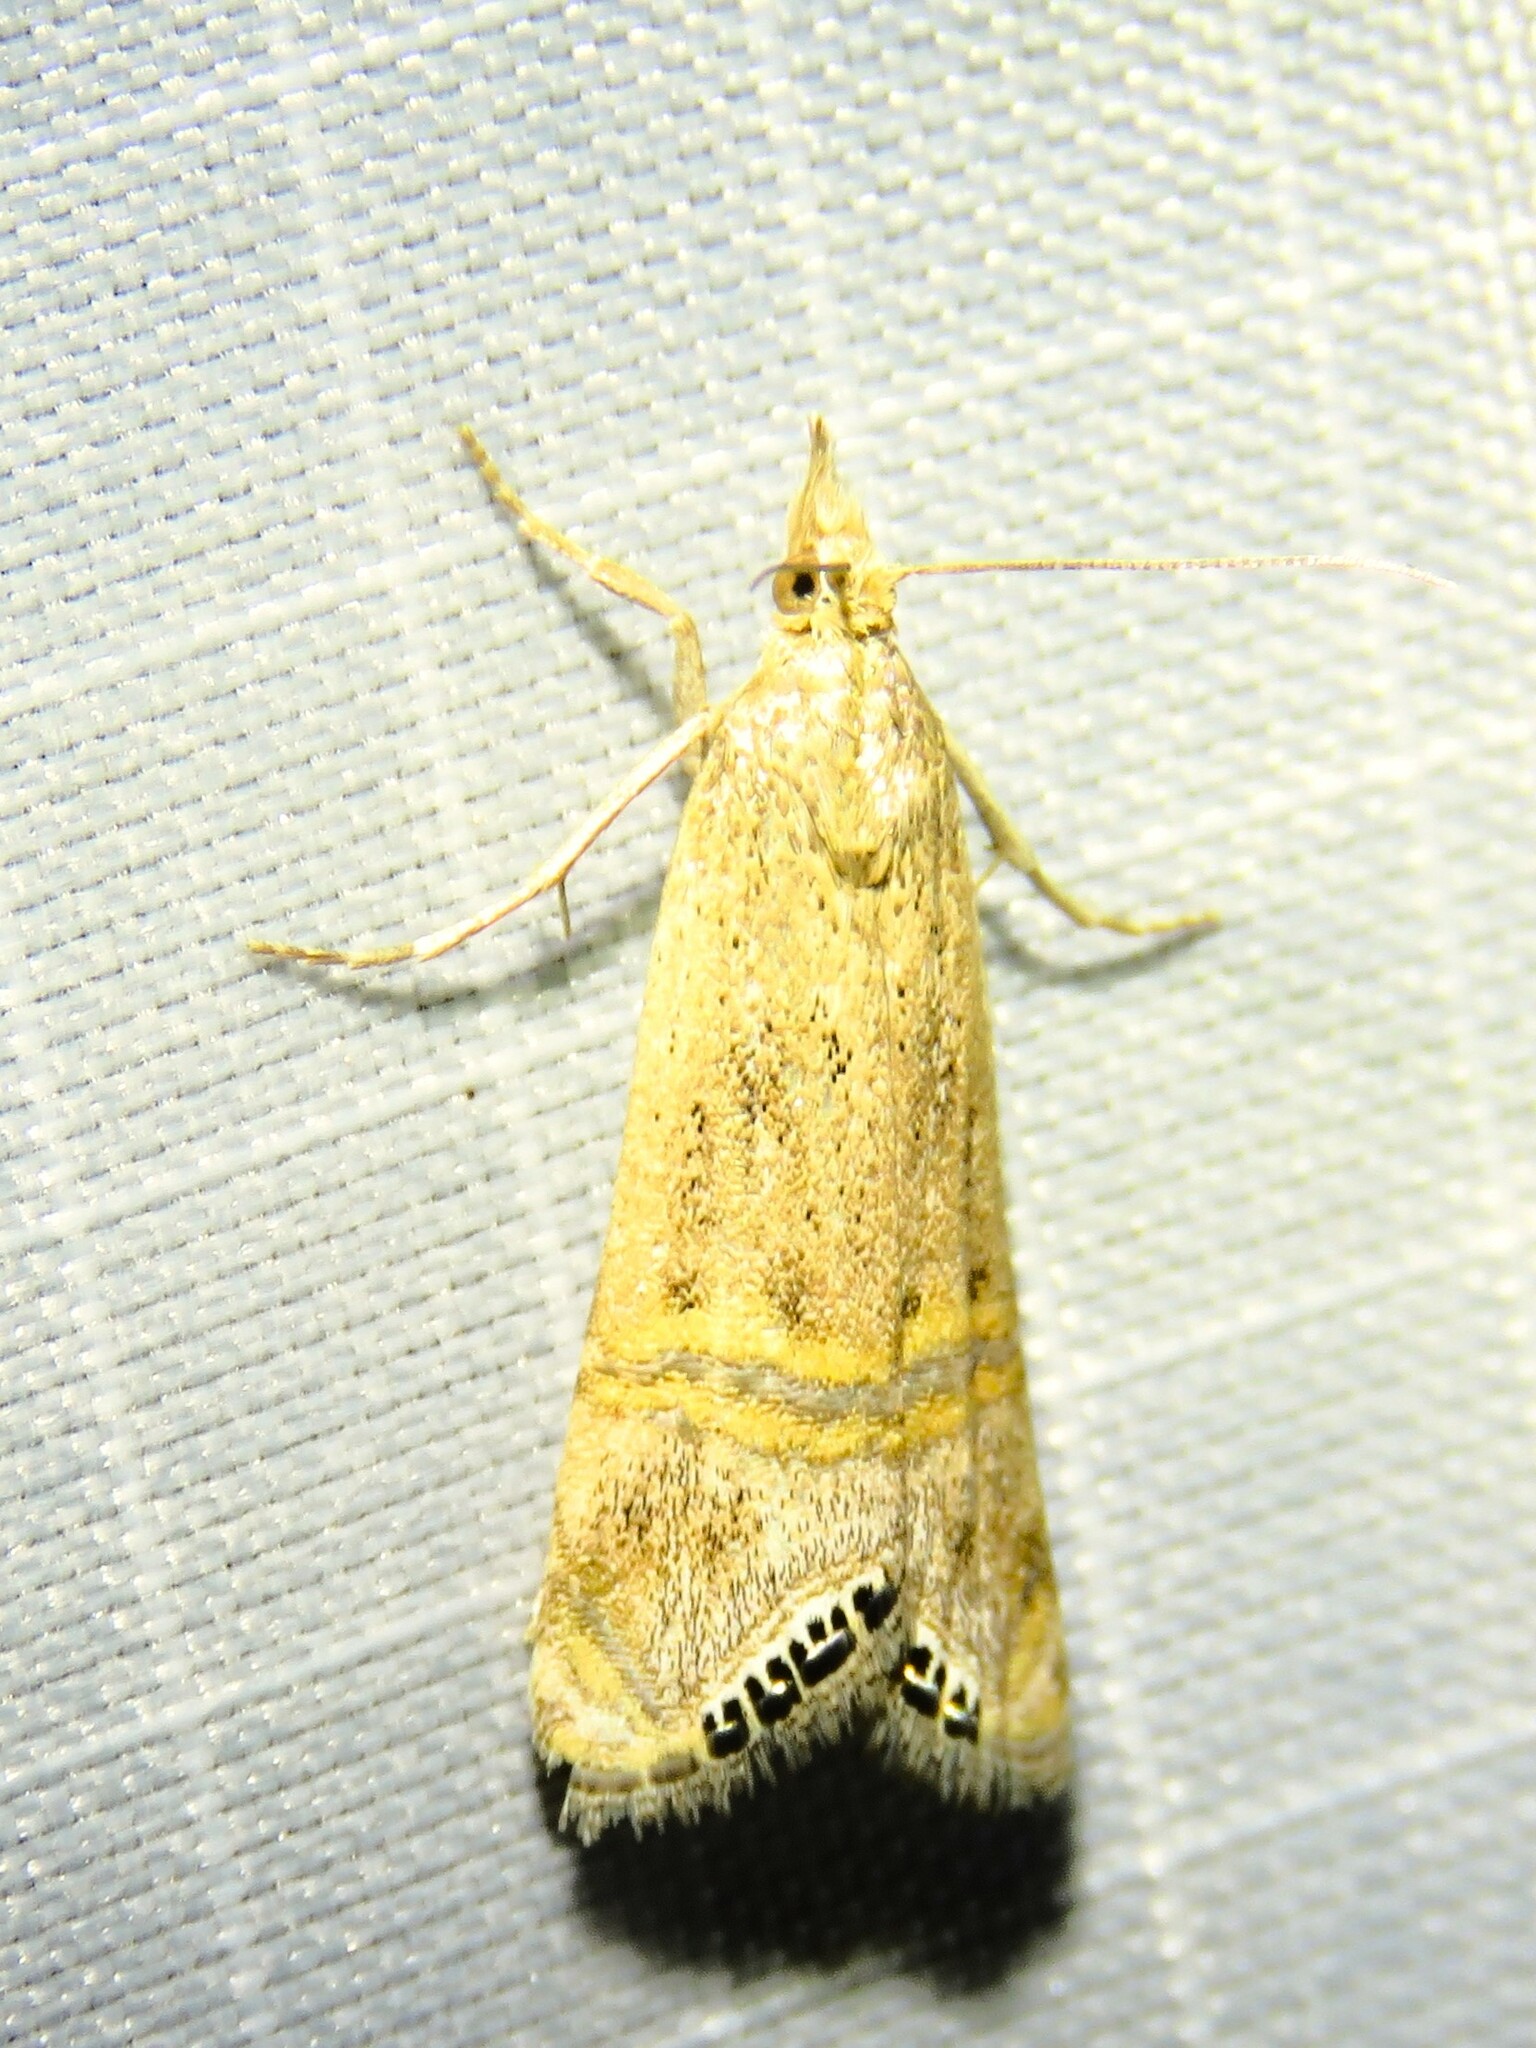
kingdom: Animalia
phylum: Arthropoda
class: Insecta
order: Lepidoptera
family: Crambidae
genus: Euchromius
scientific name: Euchromius ocellea
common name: Necklace veneer moth
